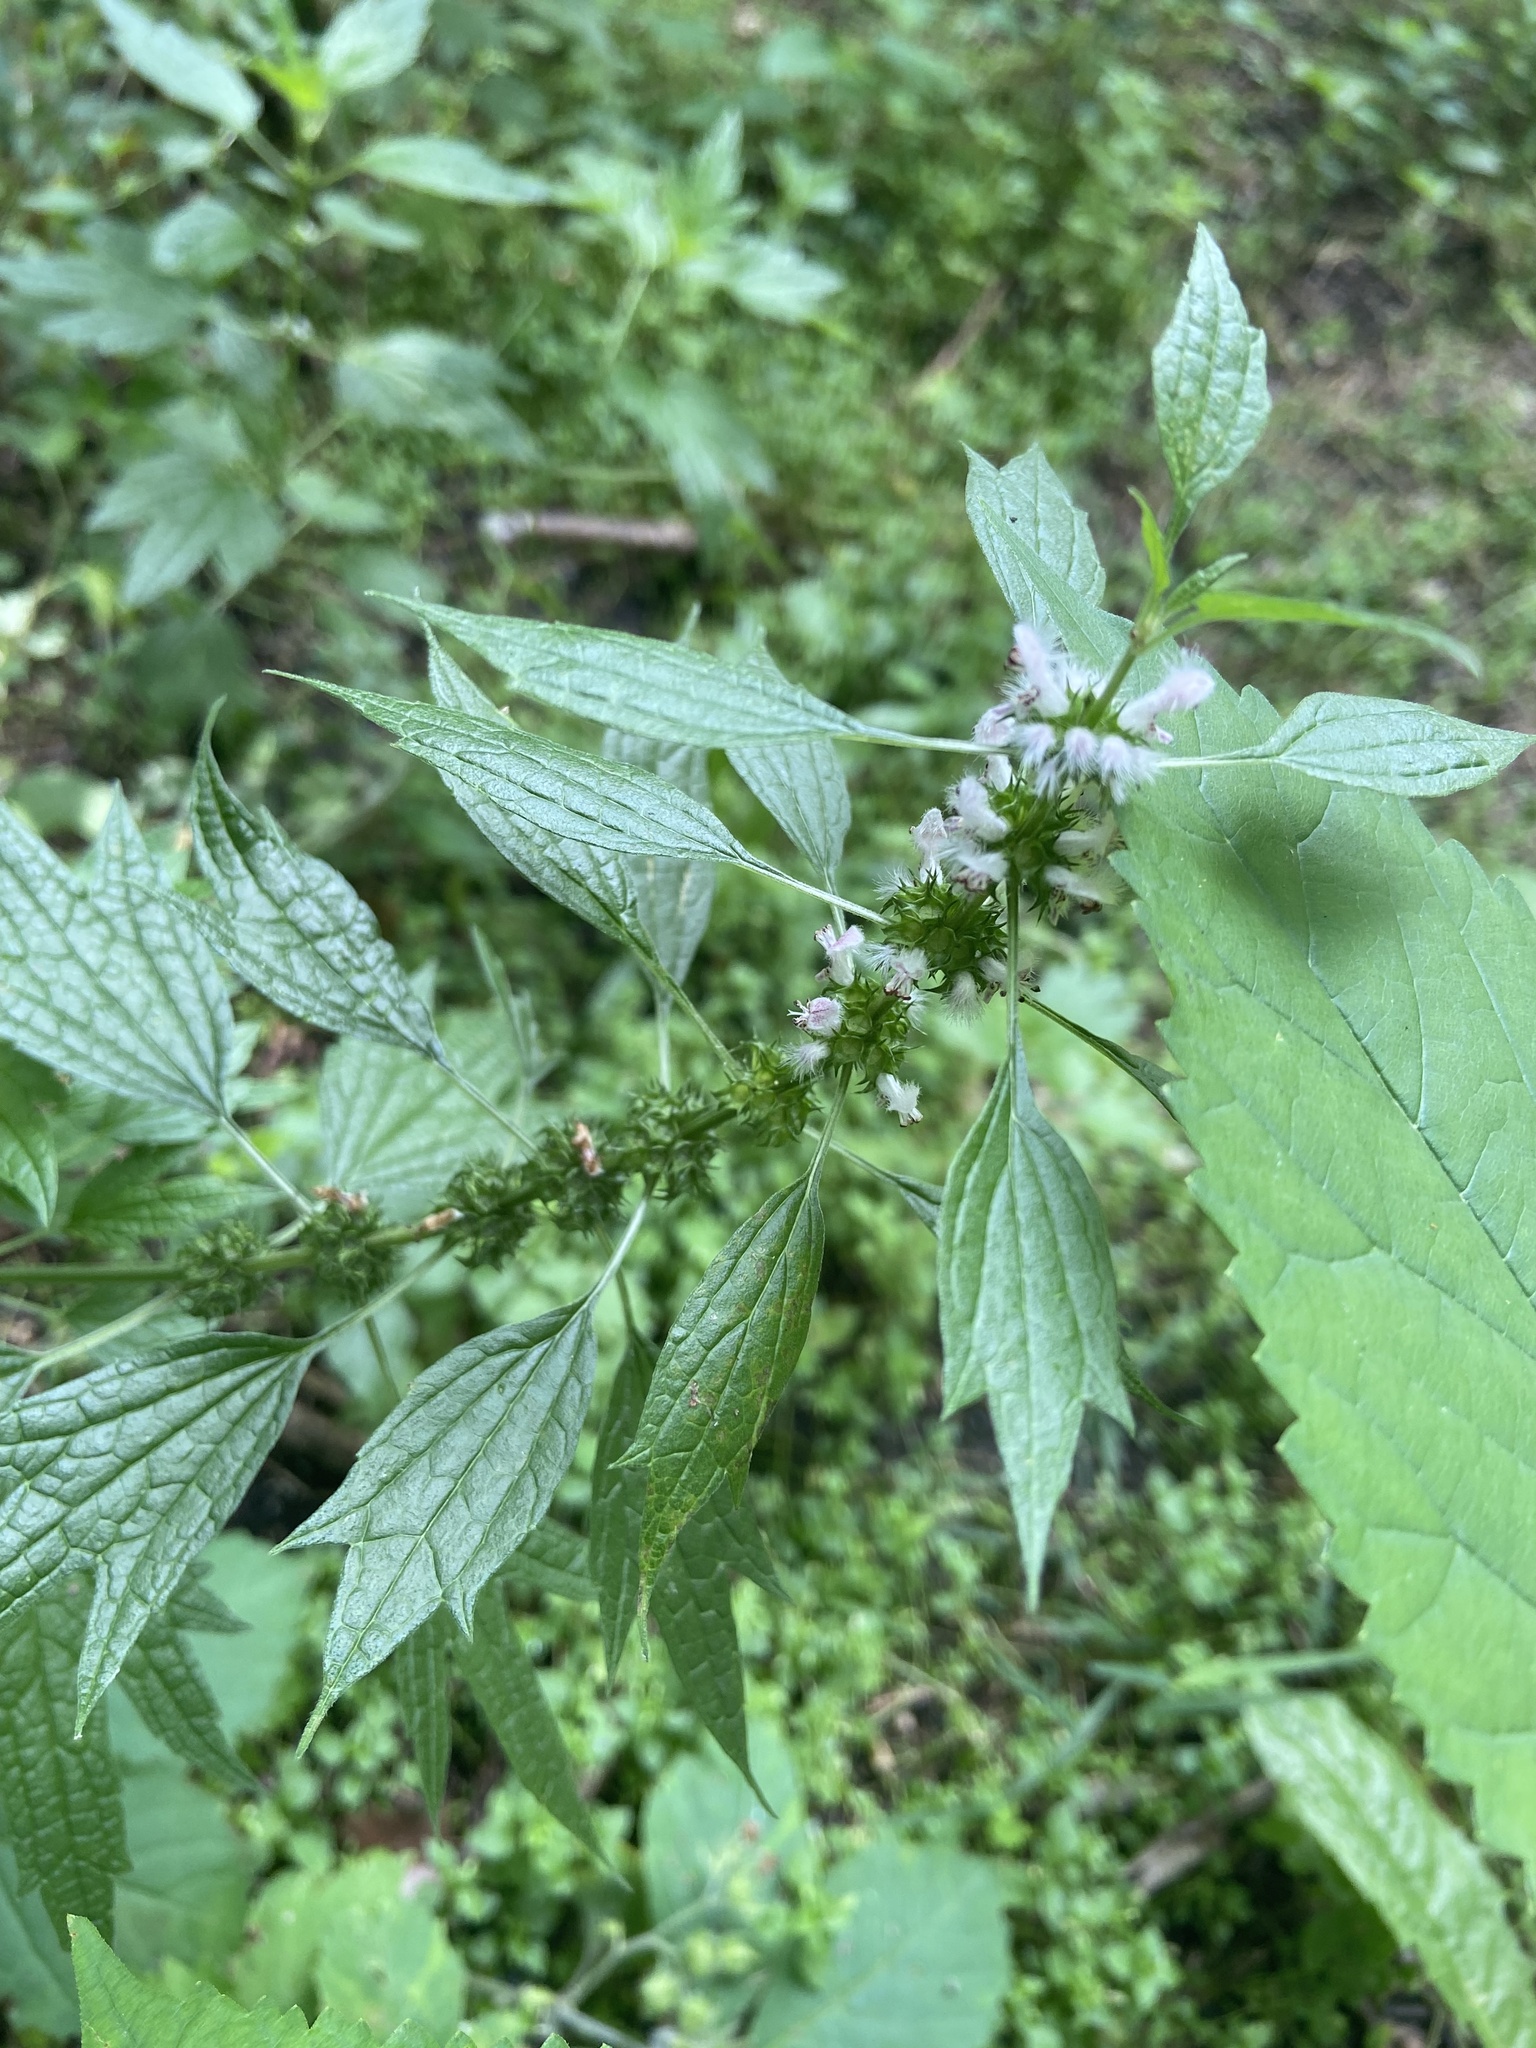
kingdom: Plantae
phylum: Tracheophyta
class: Magnoliopsida
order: Lamiales
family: Lamiaceae
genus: Leonurus
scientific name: Leonurus cardiaca
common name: Motherwort
